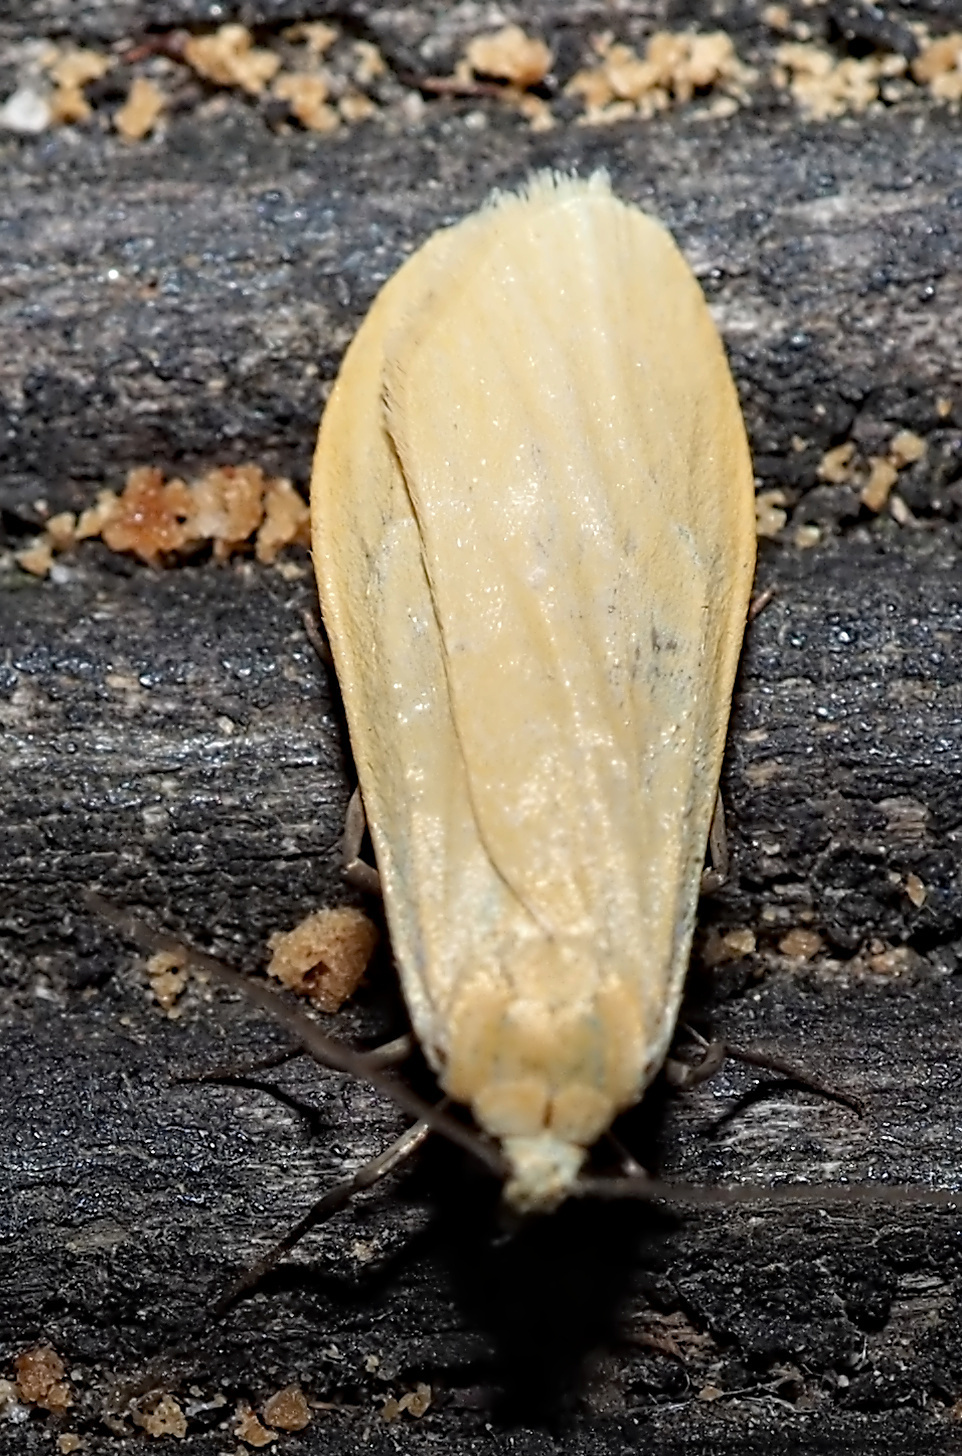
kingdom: Animalia
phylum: Arthropoda
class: Insecta
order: Lepidoptera
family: Erebidae
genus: Wittia
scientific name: Wittia sororcula
